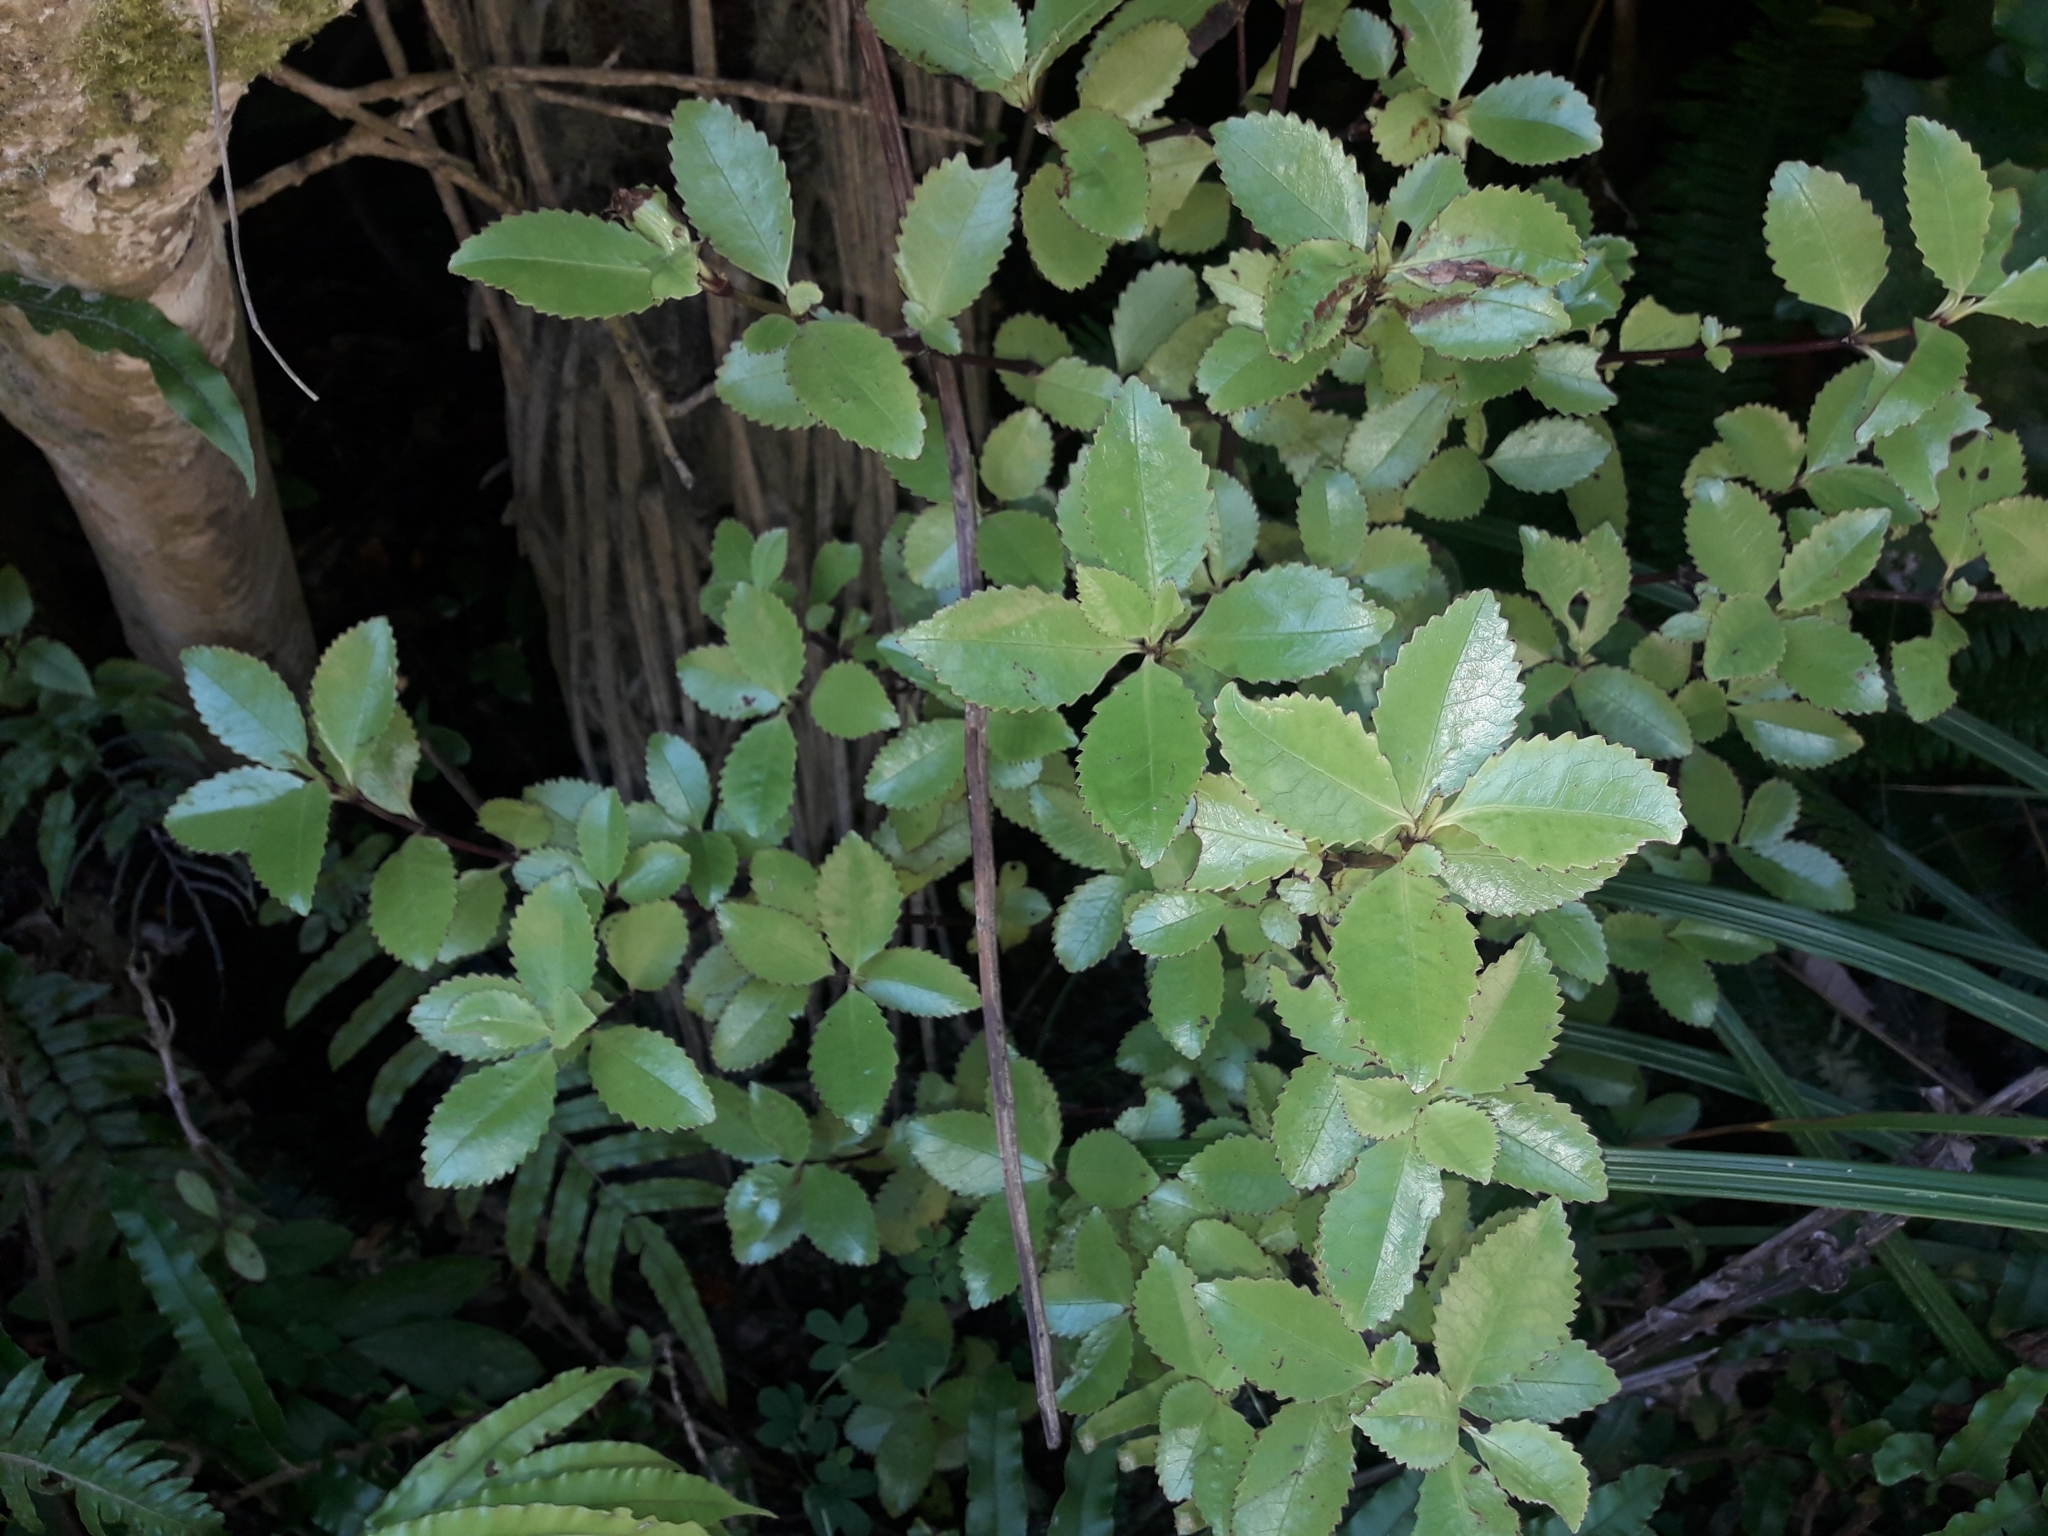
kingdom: Plantae
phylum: Tracheophyta
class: Magnoliopsida
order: Chloranthales
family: Chloranthaceae
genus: Ascarina
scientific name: Ascarina lucida
